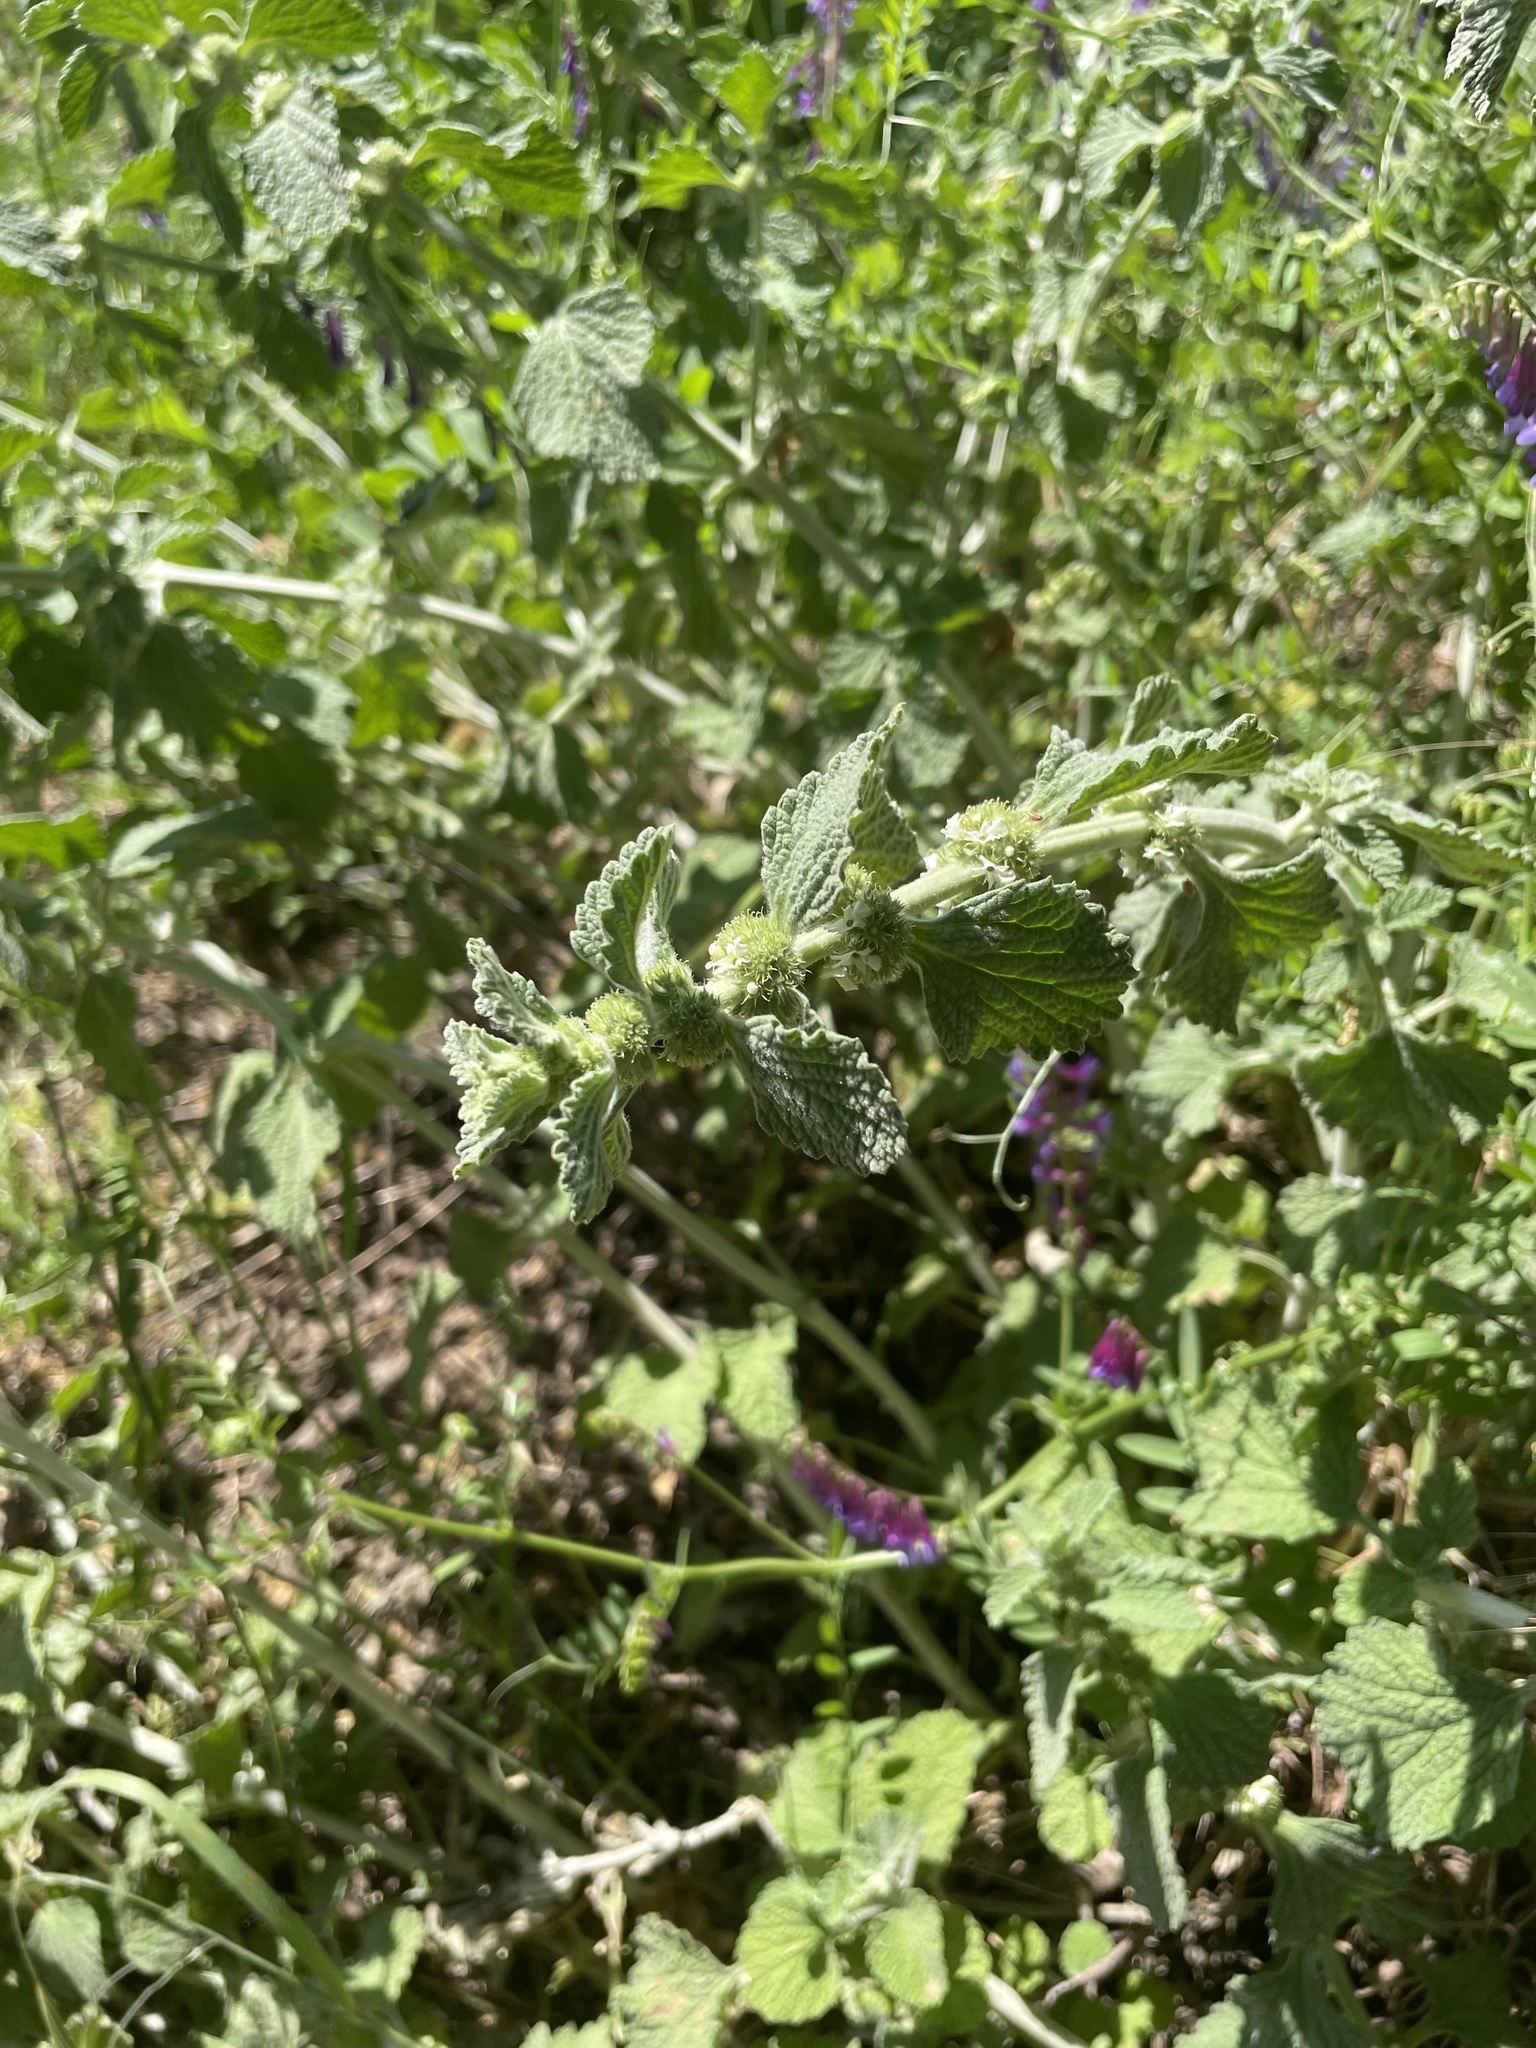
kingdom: Plantae
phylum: Tracheophyta
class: Magnoliopsida
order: Lamiales
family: Lamiaceae
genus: Marrubium
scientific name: Marrubium vulgare
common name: Horehound
